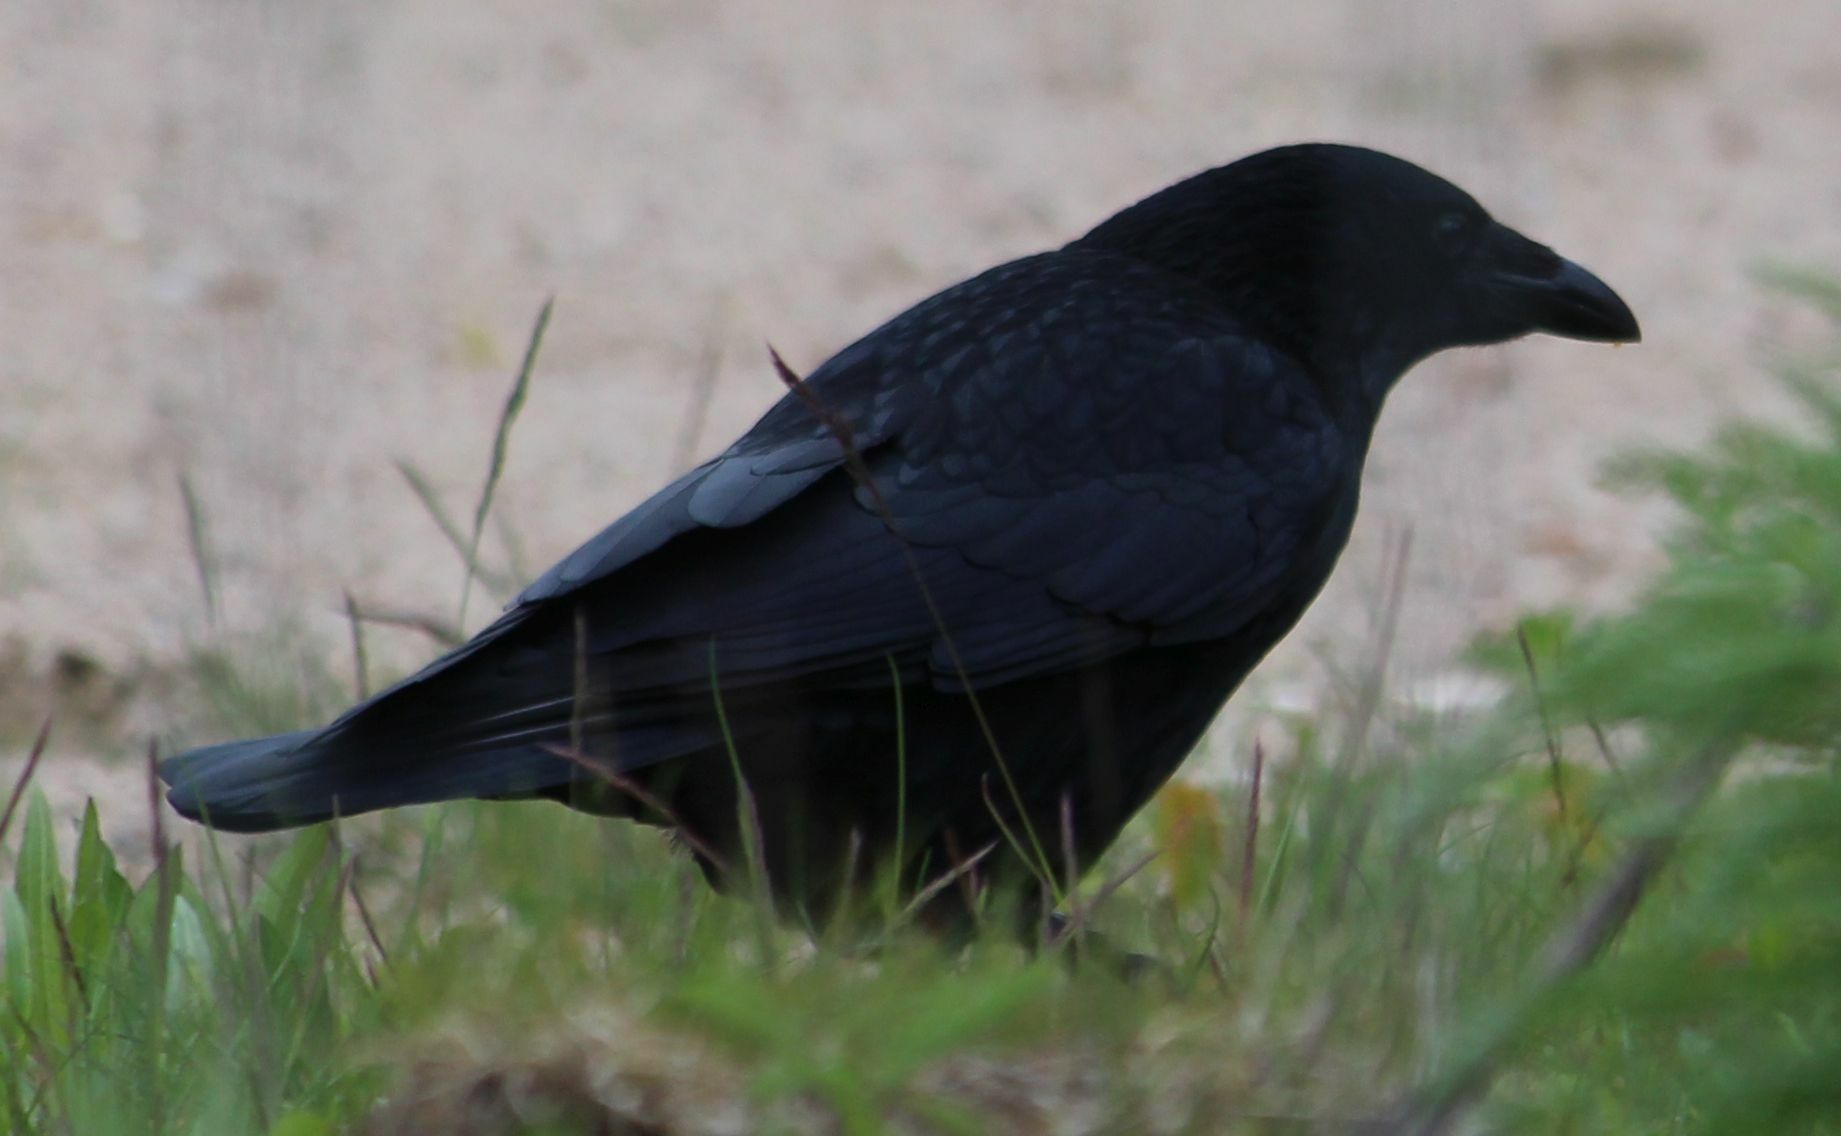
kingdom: Animalia
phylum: Chordata
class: Aves
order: Passeriformes
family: Corvidae
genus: Corvus
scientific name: Corvus corone
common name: Carrion crow
